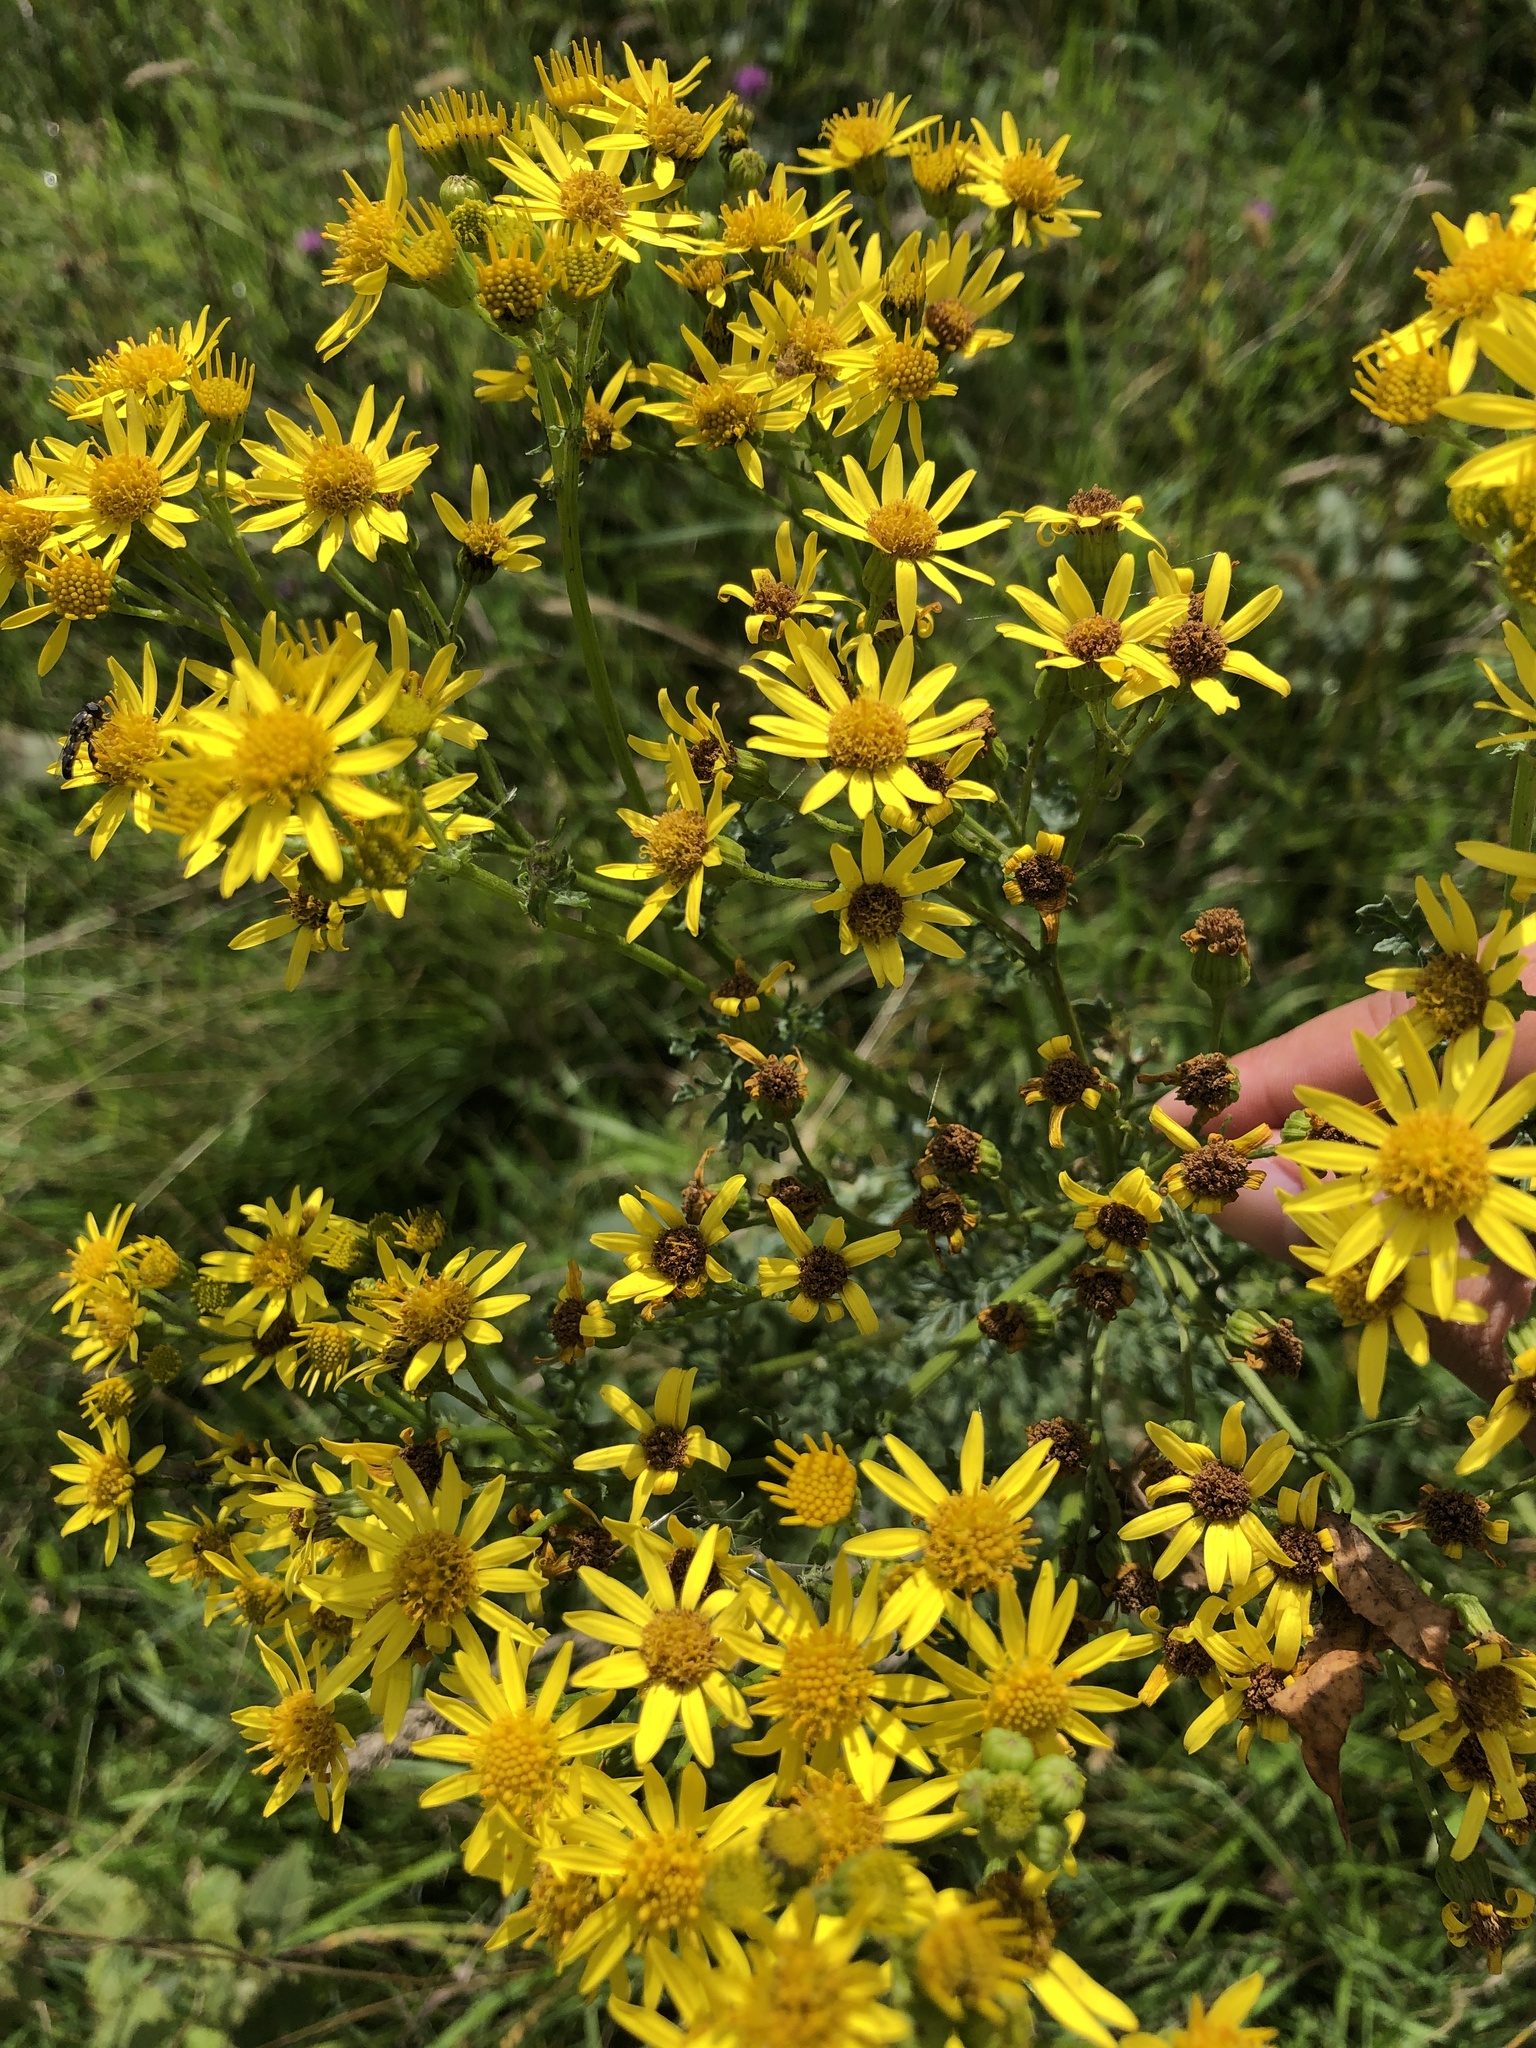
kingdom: Plantae
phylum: Tracheophyta
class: Magnoliopsida
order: Asterales
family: Asteraceae
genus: Jacobaea
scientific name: Jacobaea vulgaris
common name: Stinking willie
